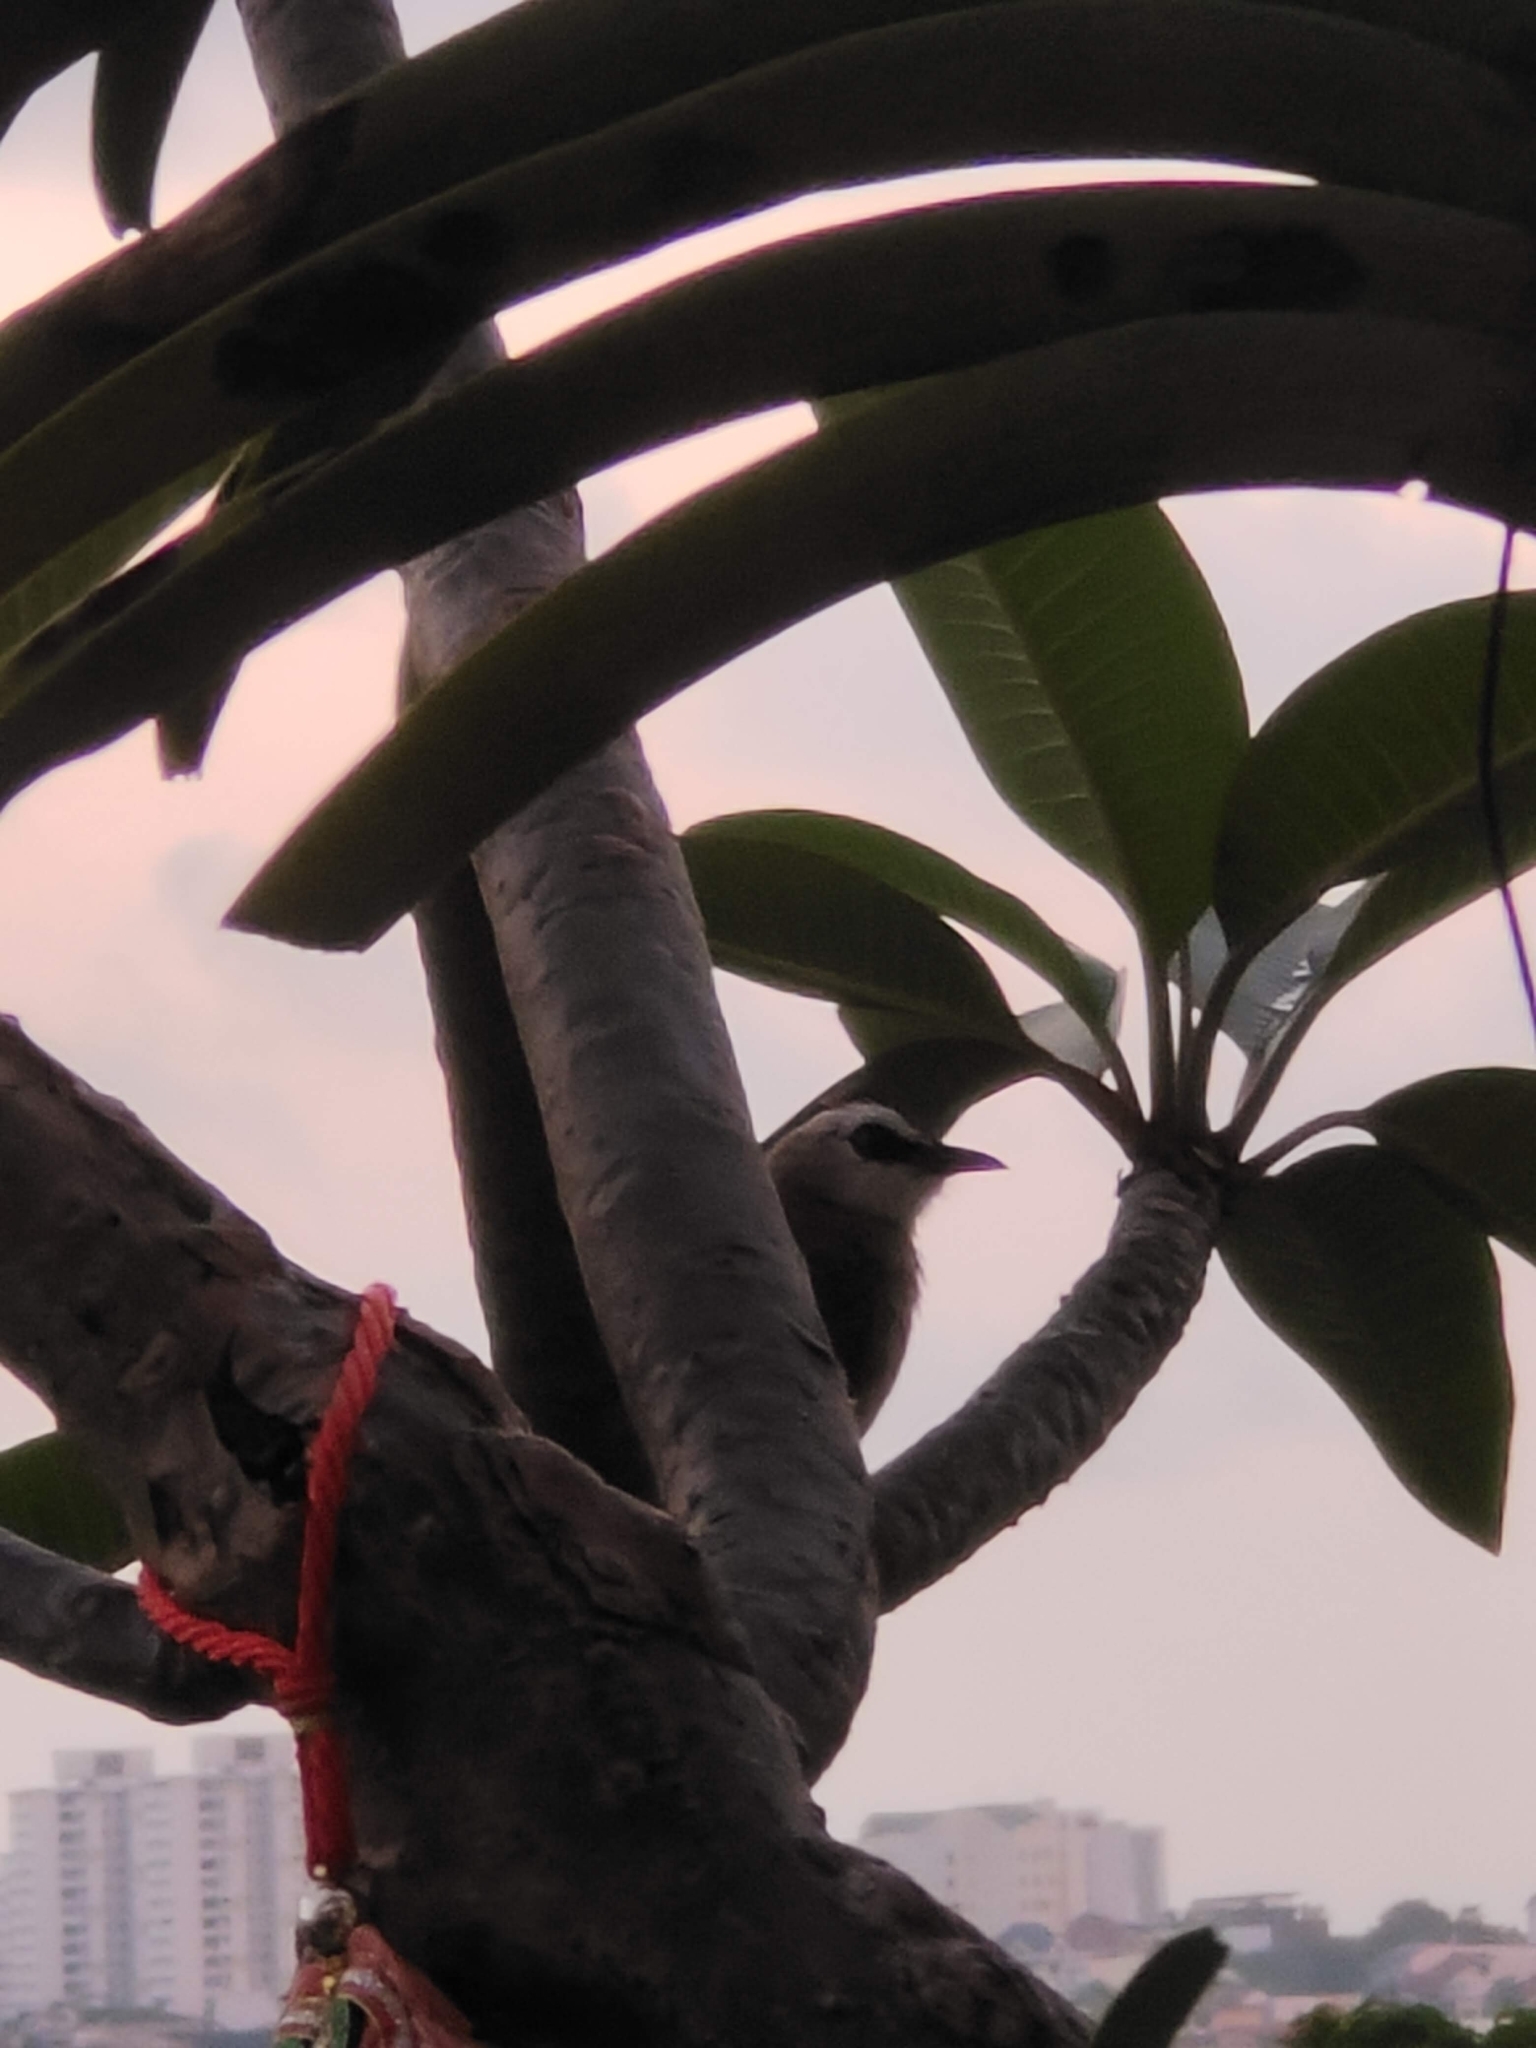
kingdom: Animalia
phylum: Chordata
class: Aves
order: Passeriformes
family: Pycnonotidae
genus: Pycnonotus
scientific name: Pycnonotus goiavier
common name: Yellow-vented bulbul
